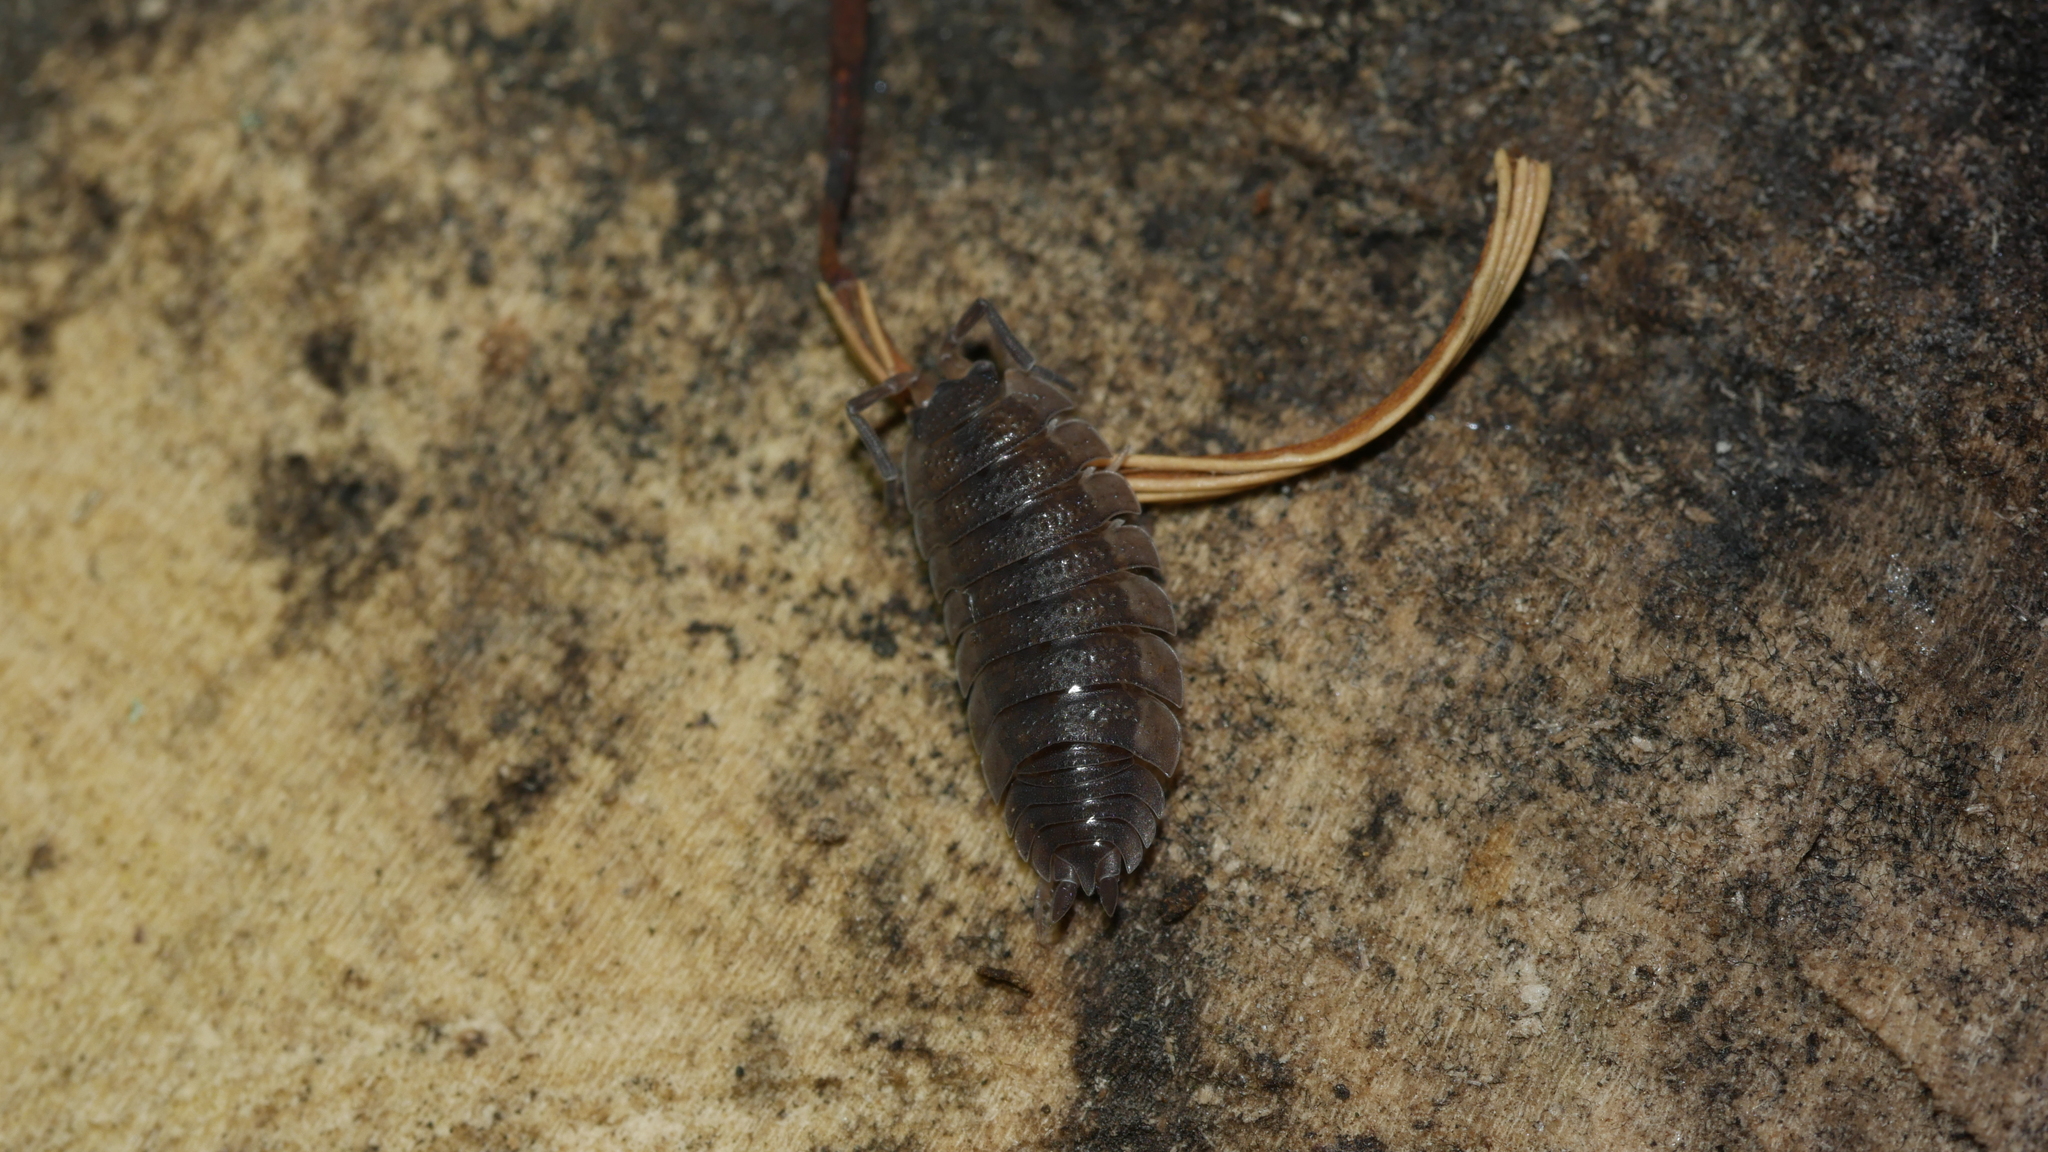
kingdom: Animalia
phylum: Arthropoda
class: Malacostraca
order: Isopoda
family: Porcellionidae
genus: Porcellio
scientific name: Porcellio scaber
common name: Common rough woodlouse
